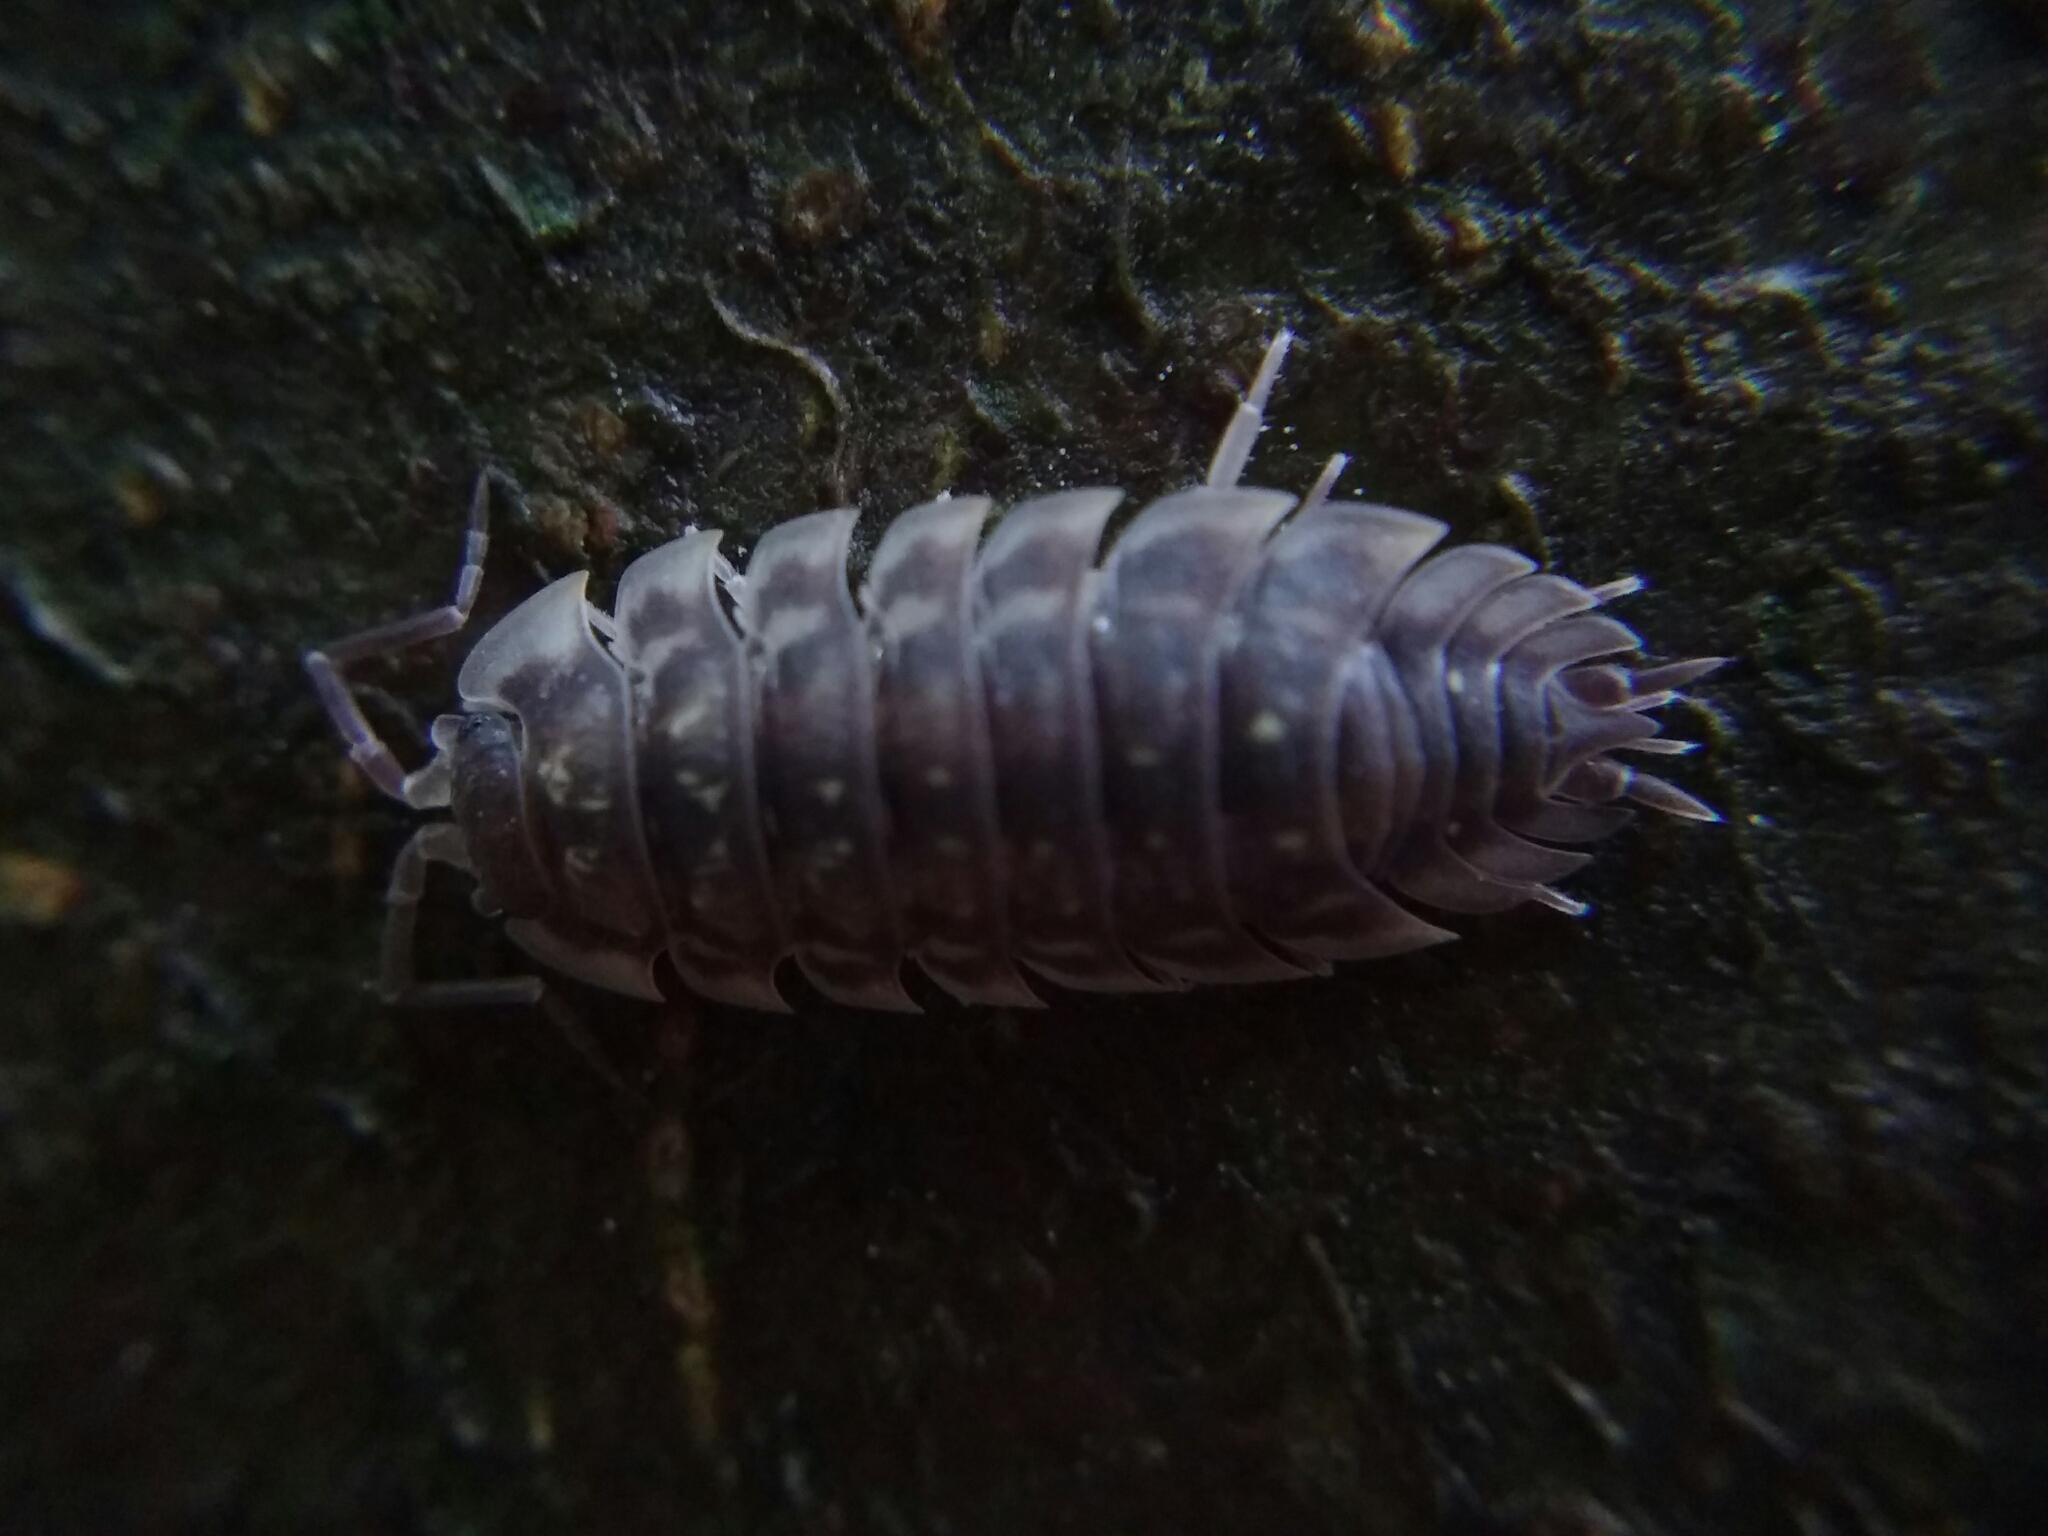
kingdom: Animalia
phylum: Arthropoda
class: Malacostraca
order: Isopoda
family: Oniscidae
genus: Oniscus
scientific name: Oniscus asellus
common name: Common shiny woodlouse
